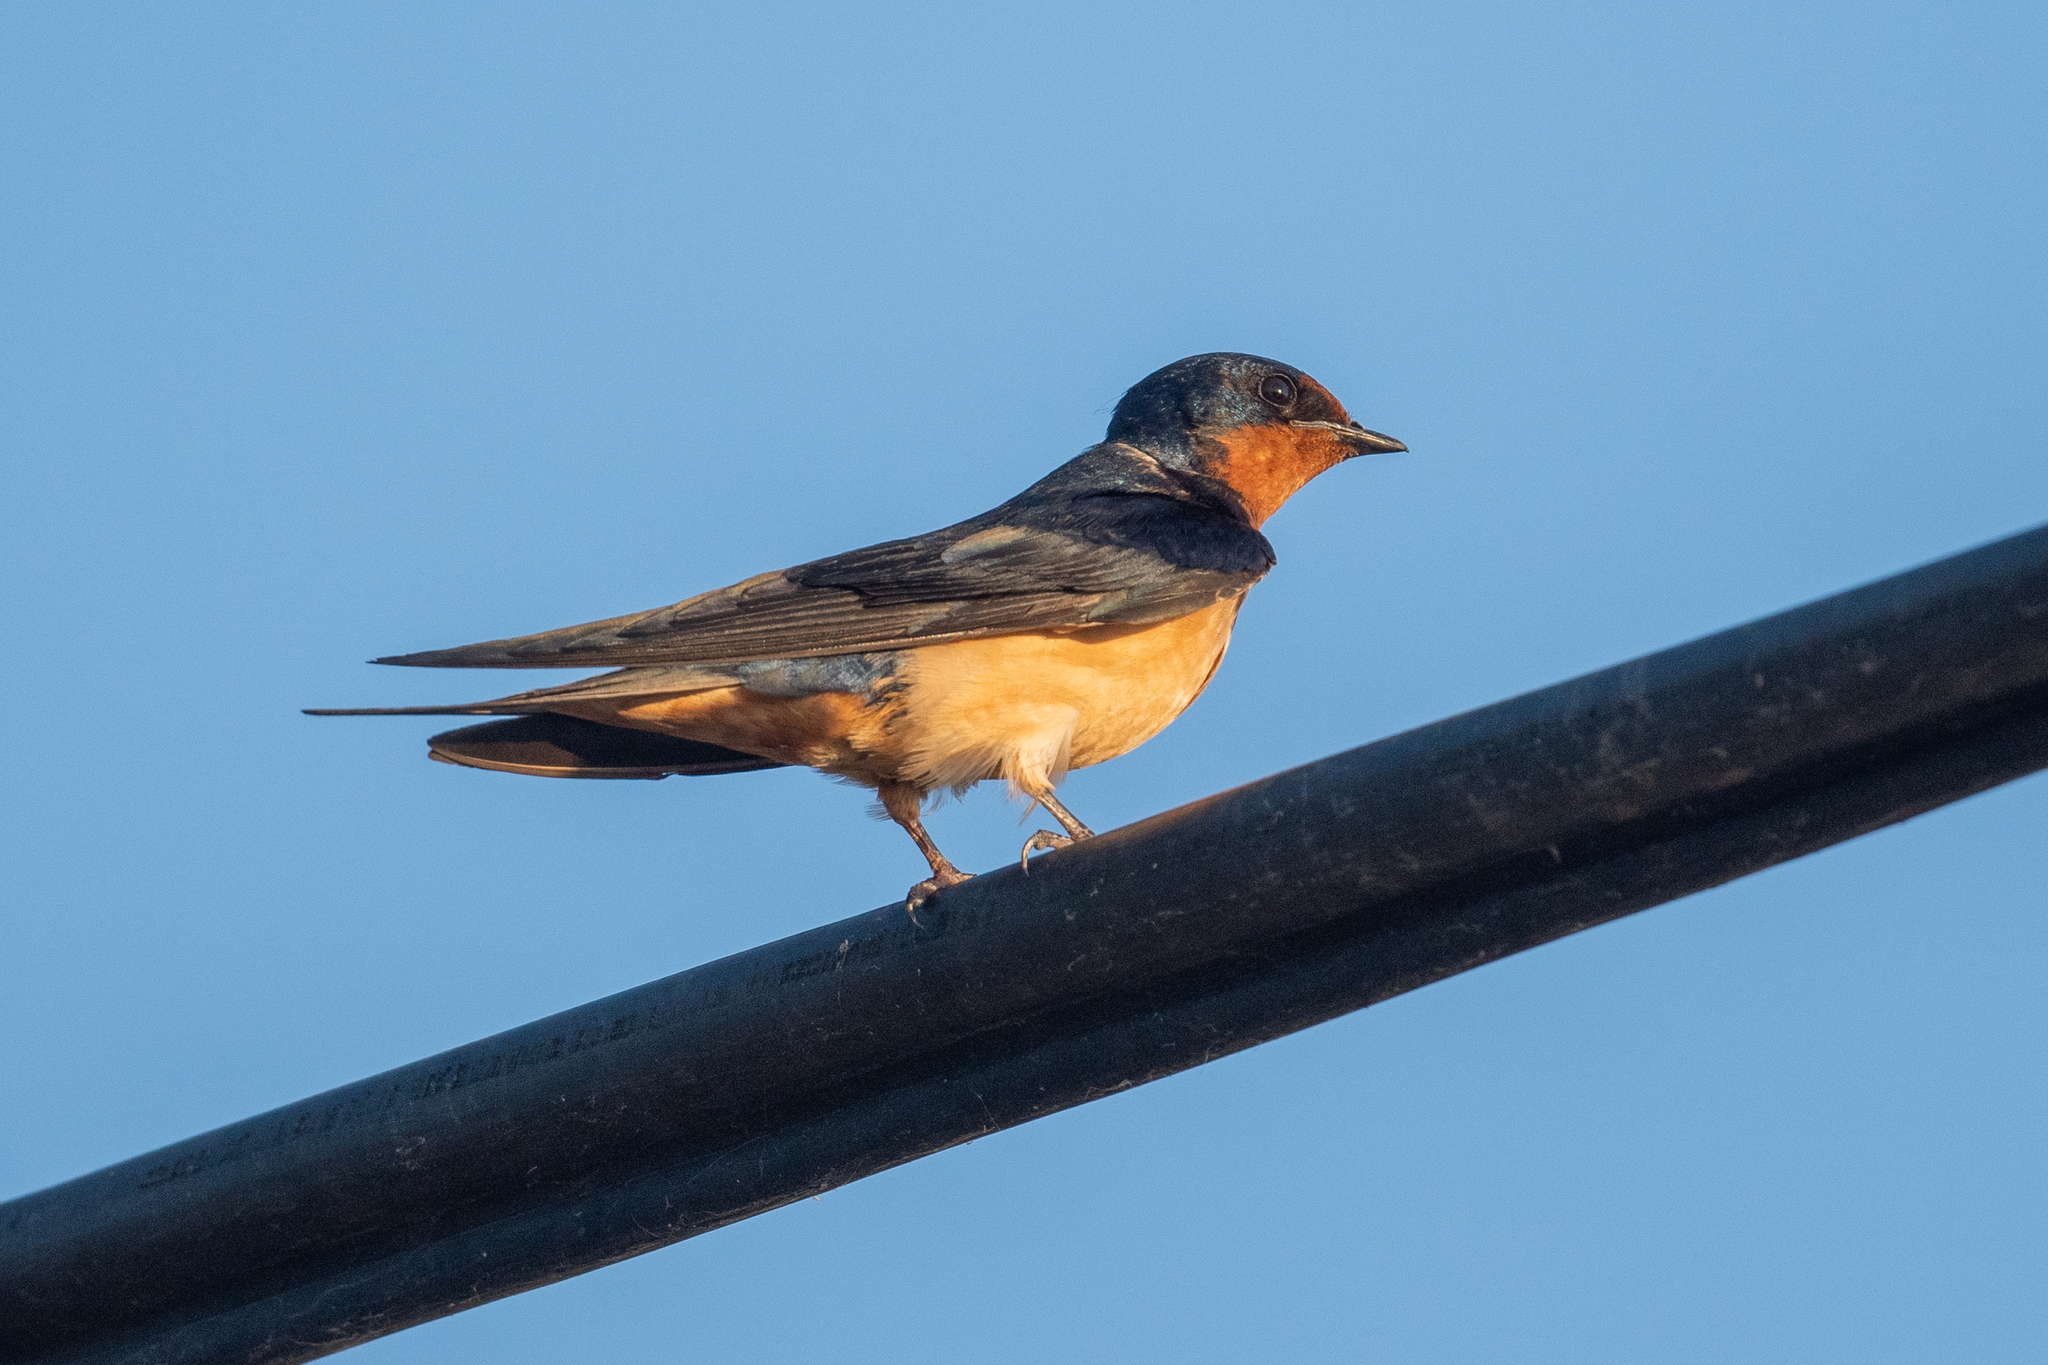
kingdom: Animalia
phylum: Chordata
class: Aves
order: Passeriformes
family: Hirundinidae
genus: Hirundo
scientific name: Hirundo rustica
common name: Barn swallow
